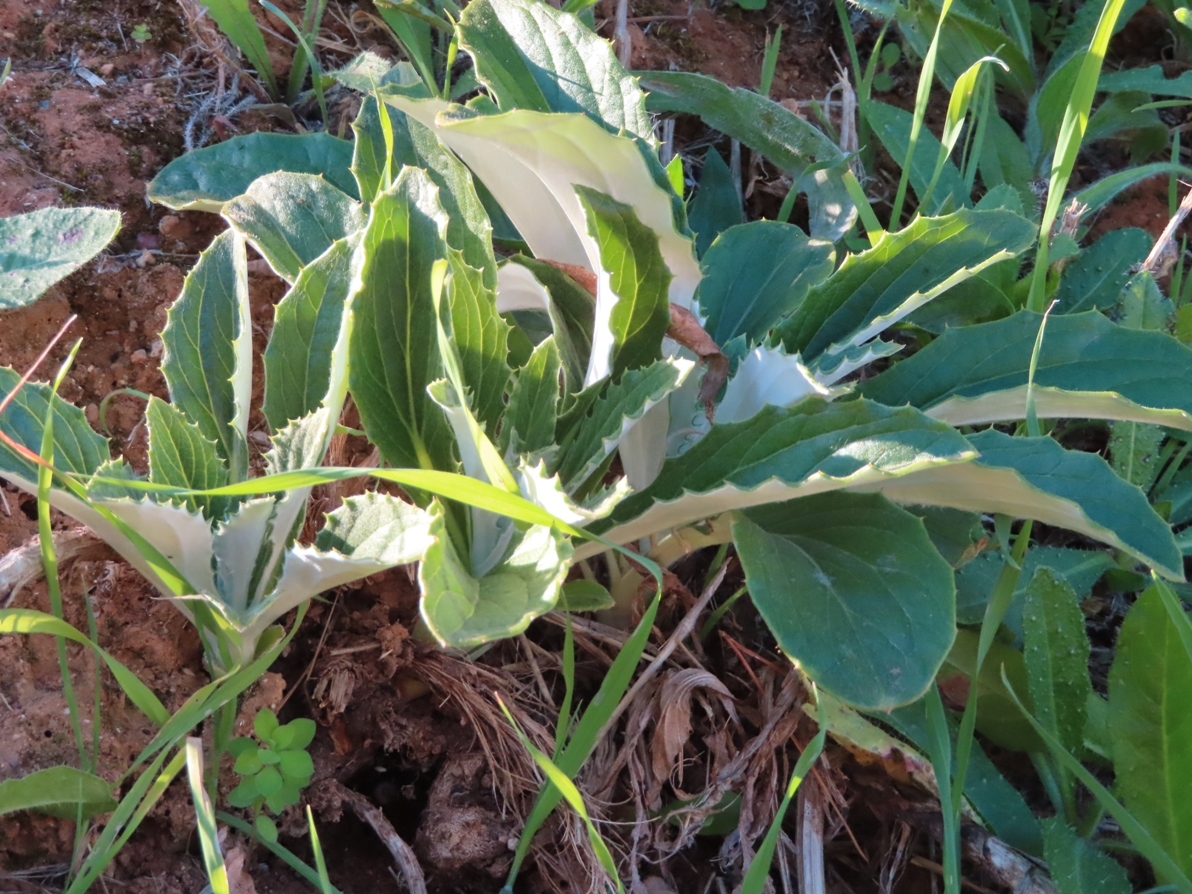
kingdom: Plantae
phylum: Tracheophyta
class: Magnoliopsida
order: Asterales
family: Asteraceae
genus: Berkheya
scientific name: Berkheya armata
